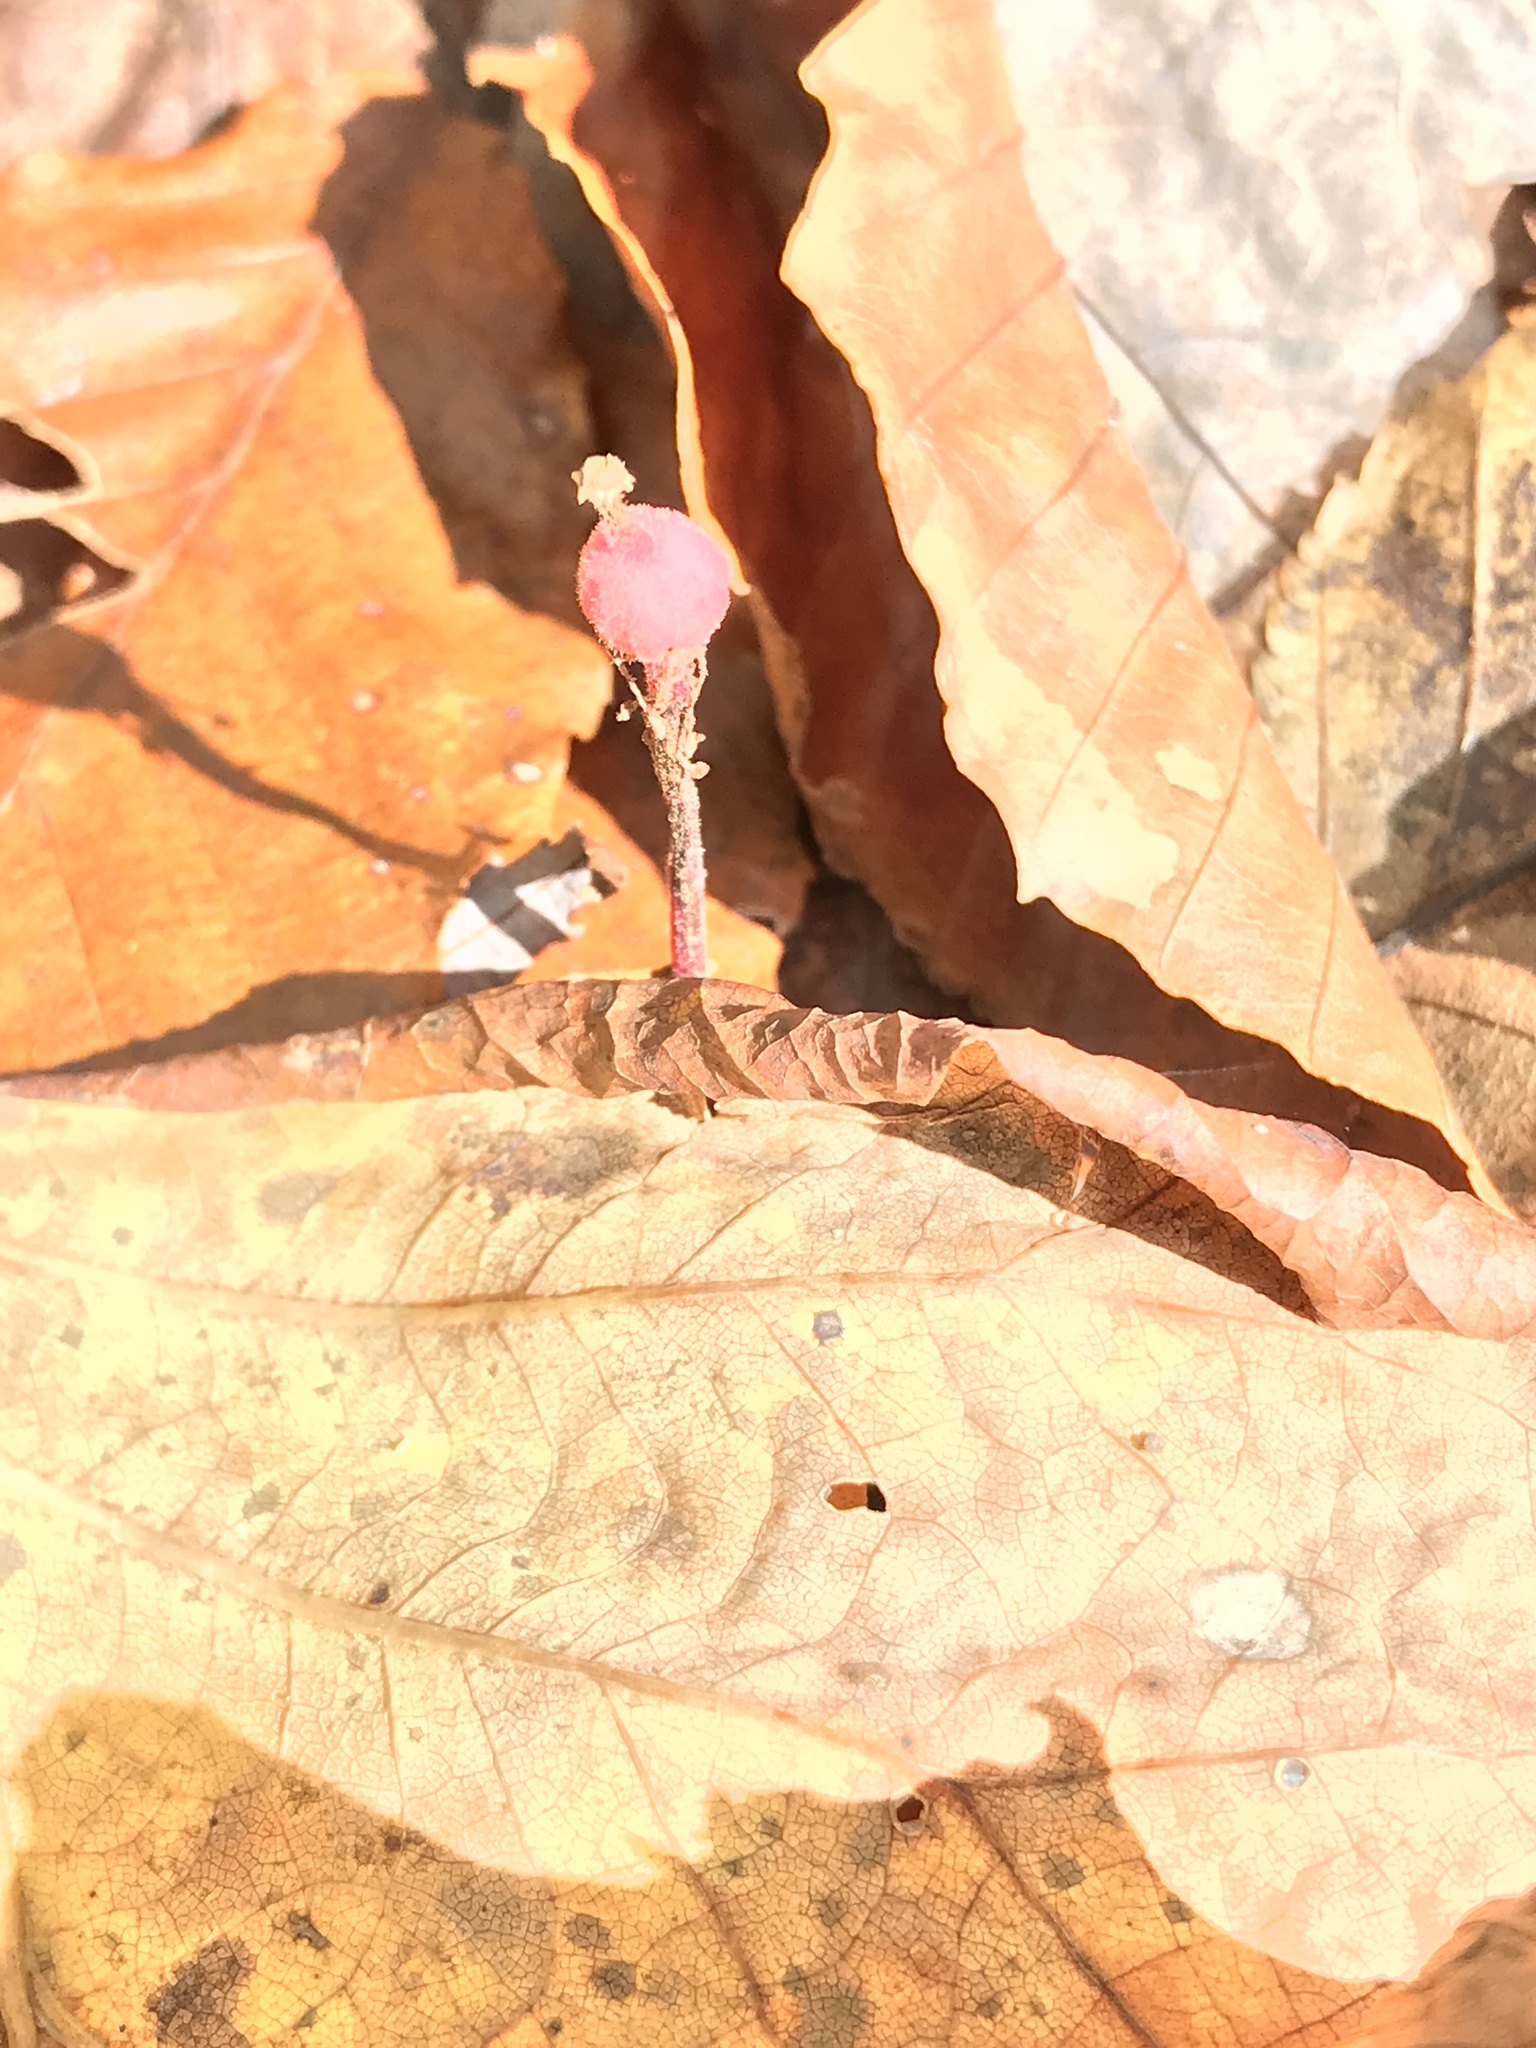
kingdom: Plantae
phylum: Tracheophyta
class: Magnoliopsida
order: Ericales
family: Ericaceae
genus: Hypopitys
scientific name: Hypopitys monotropa
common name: Yellow bird's-nest
